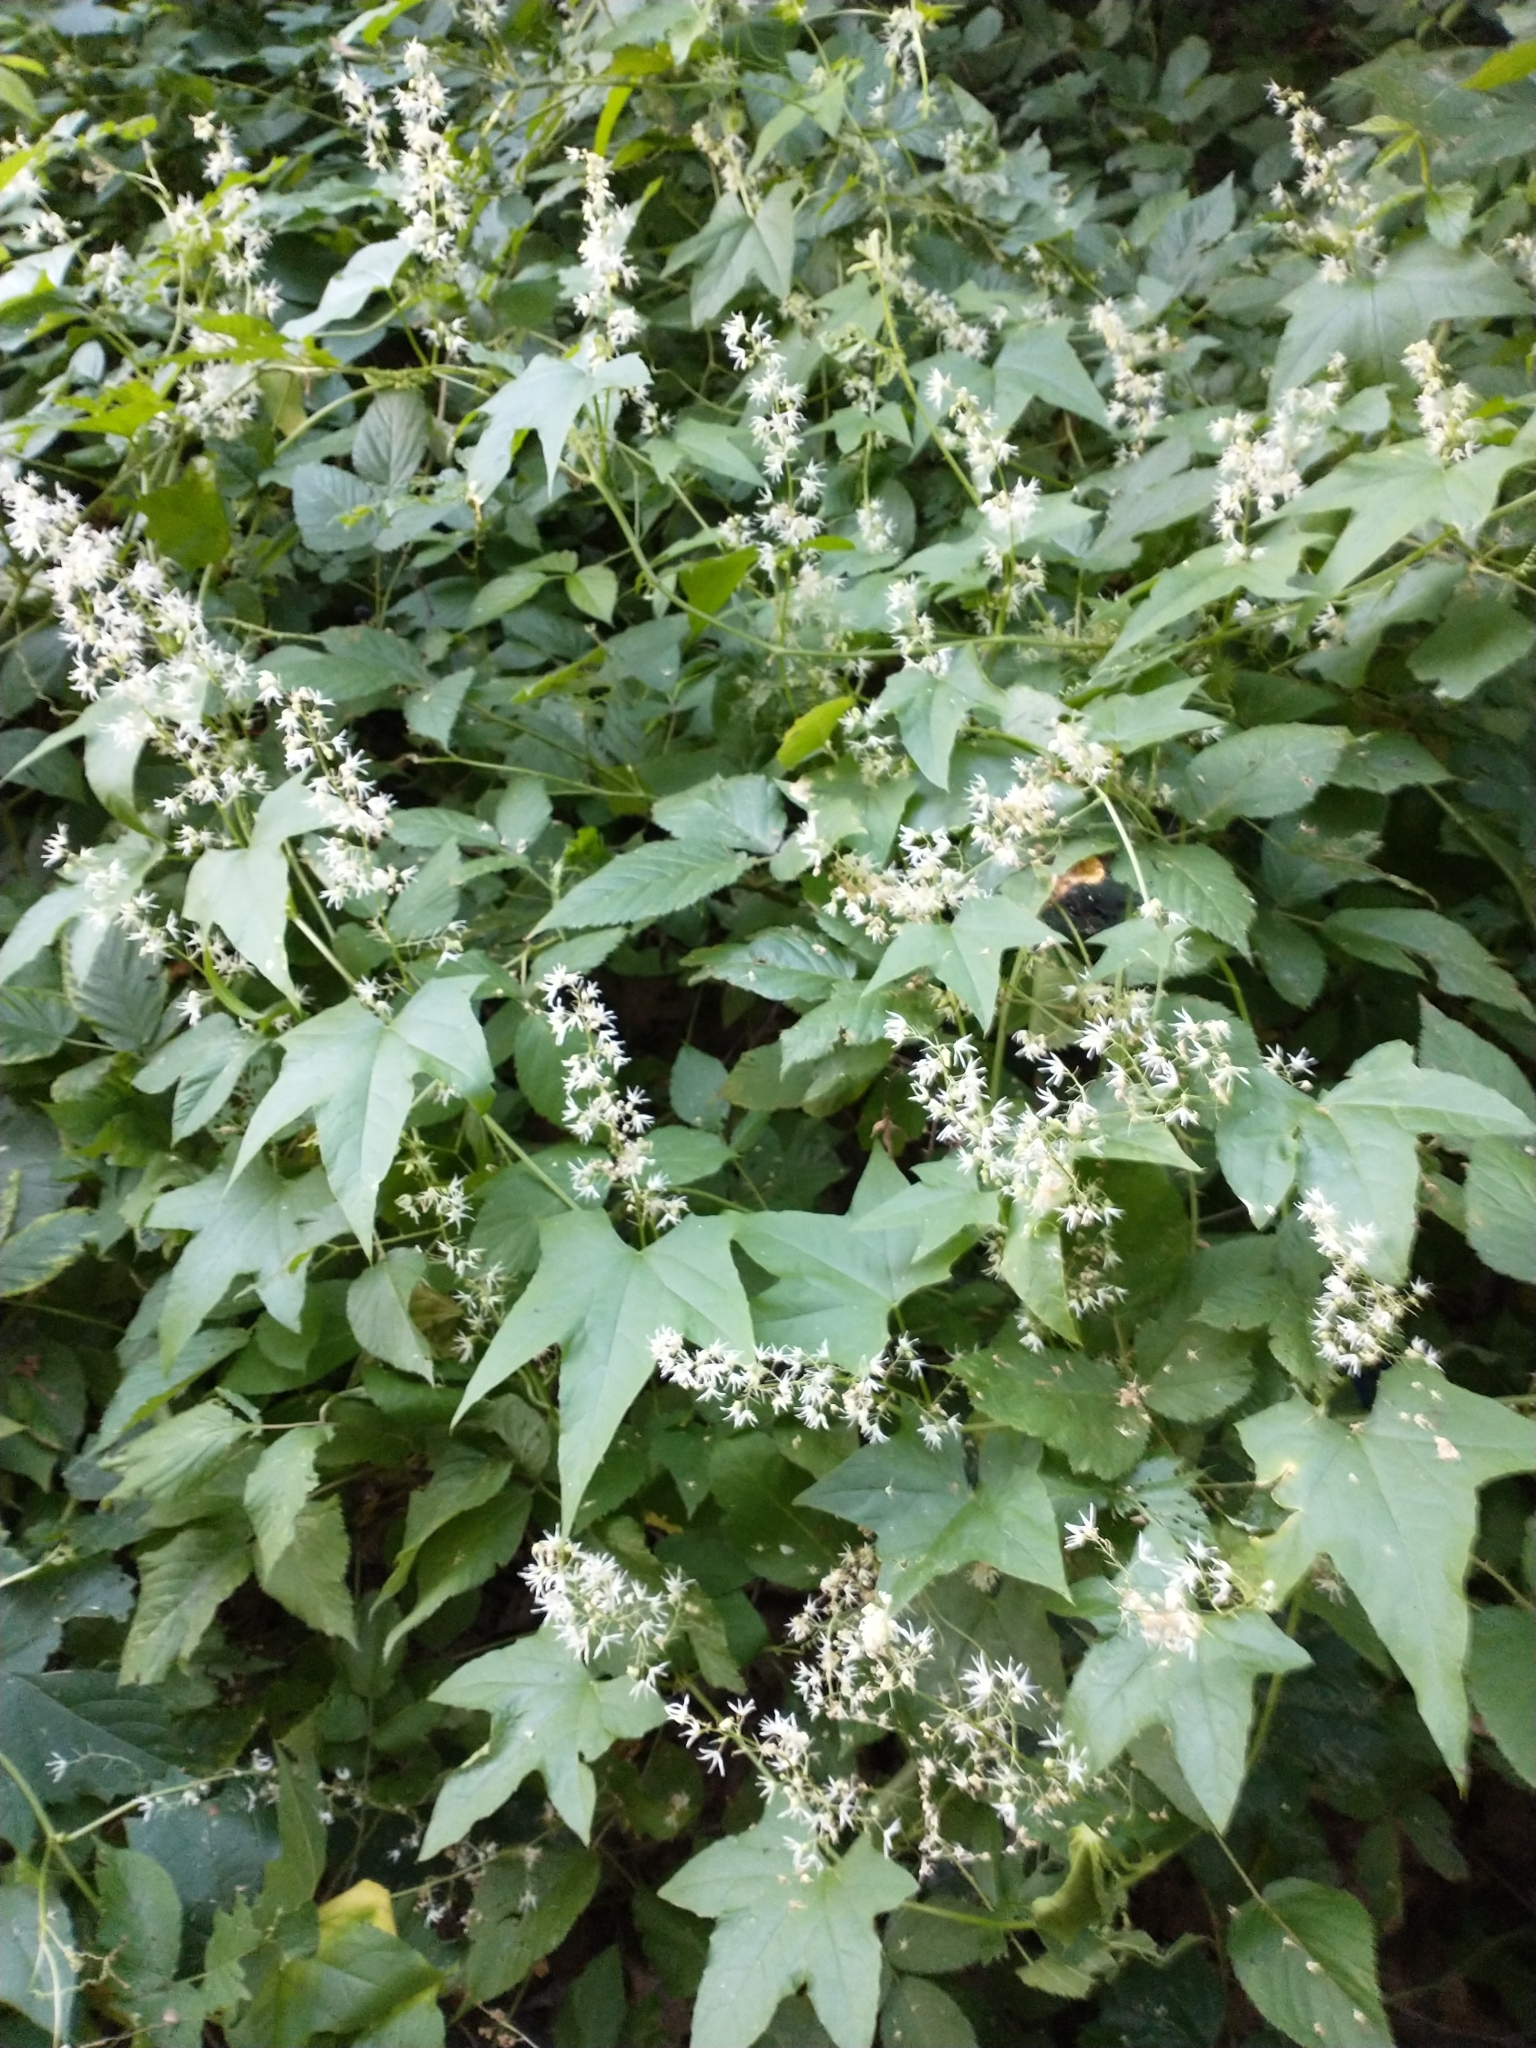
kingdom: Plantae
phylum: Tracheophyta
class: Magnoliopsida
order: Cucurbitales
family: Cucurbitaceae
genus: Echinocystis
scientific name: Echinocystis lobata
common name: Wild cucumber
